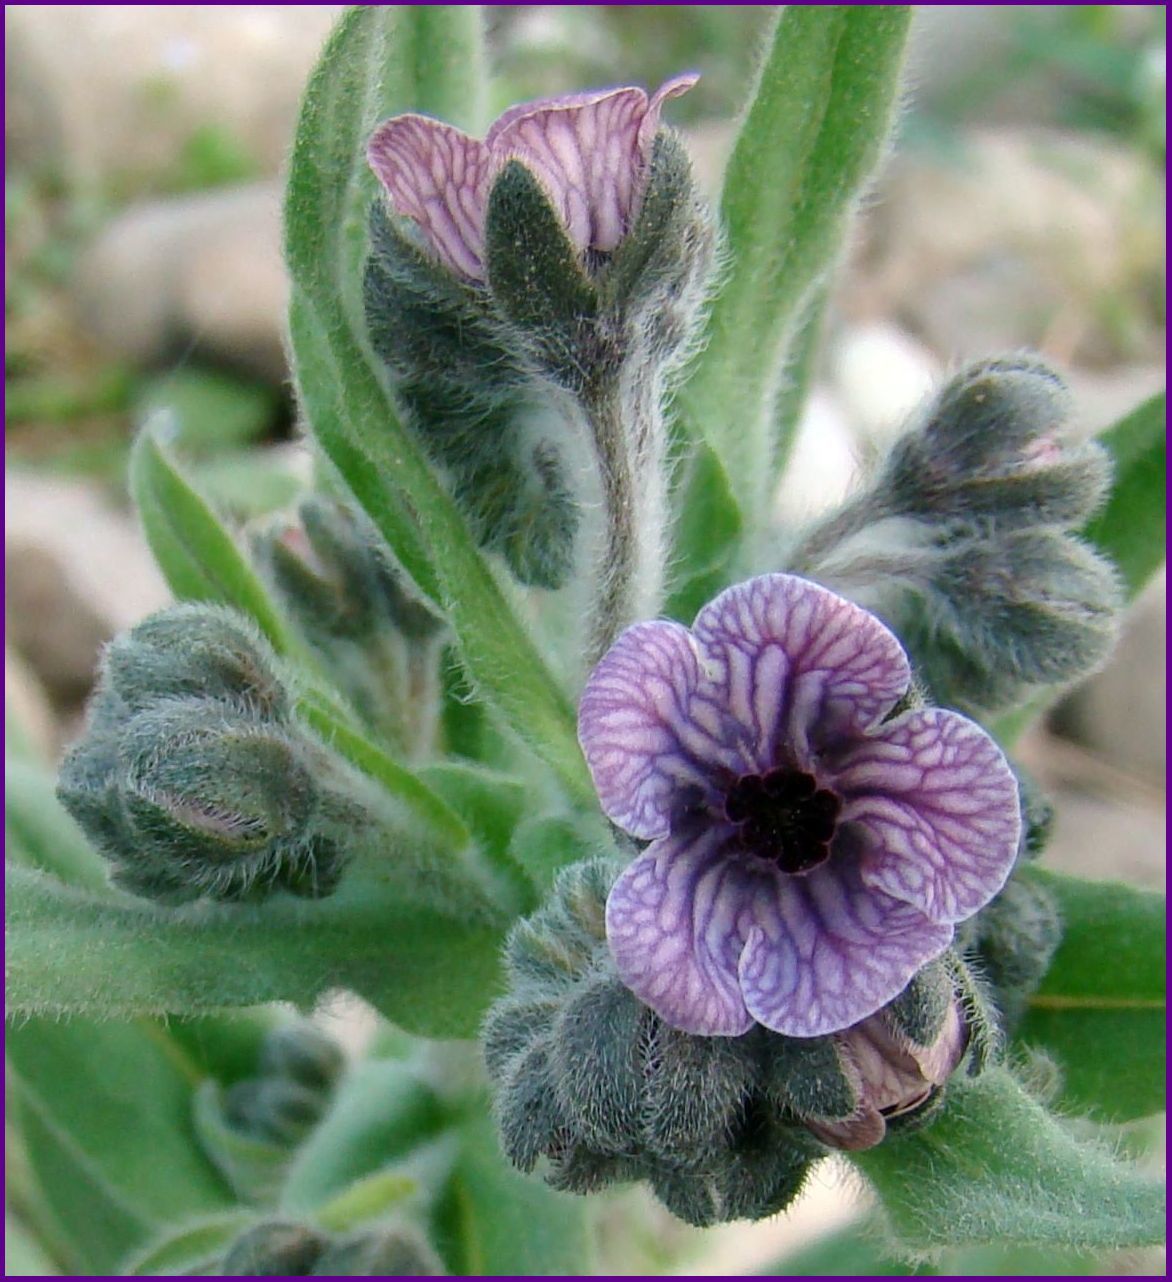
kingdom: Plantae
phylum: Tracheophyta
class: Magnoliopsida
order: Boraginales
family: Boraginaceae
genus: Cynoglossum
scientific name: Cynoglossum creticum
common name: Blue hound's tongue
